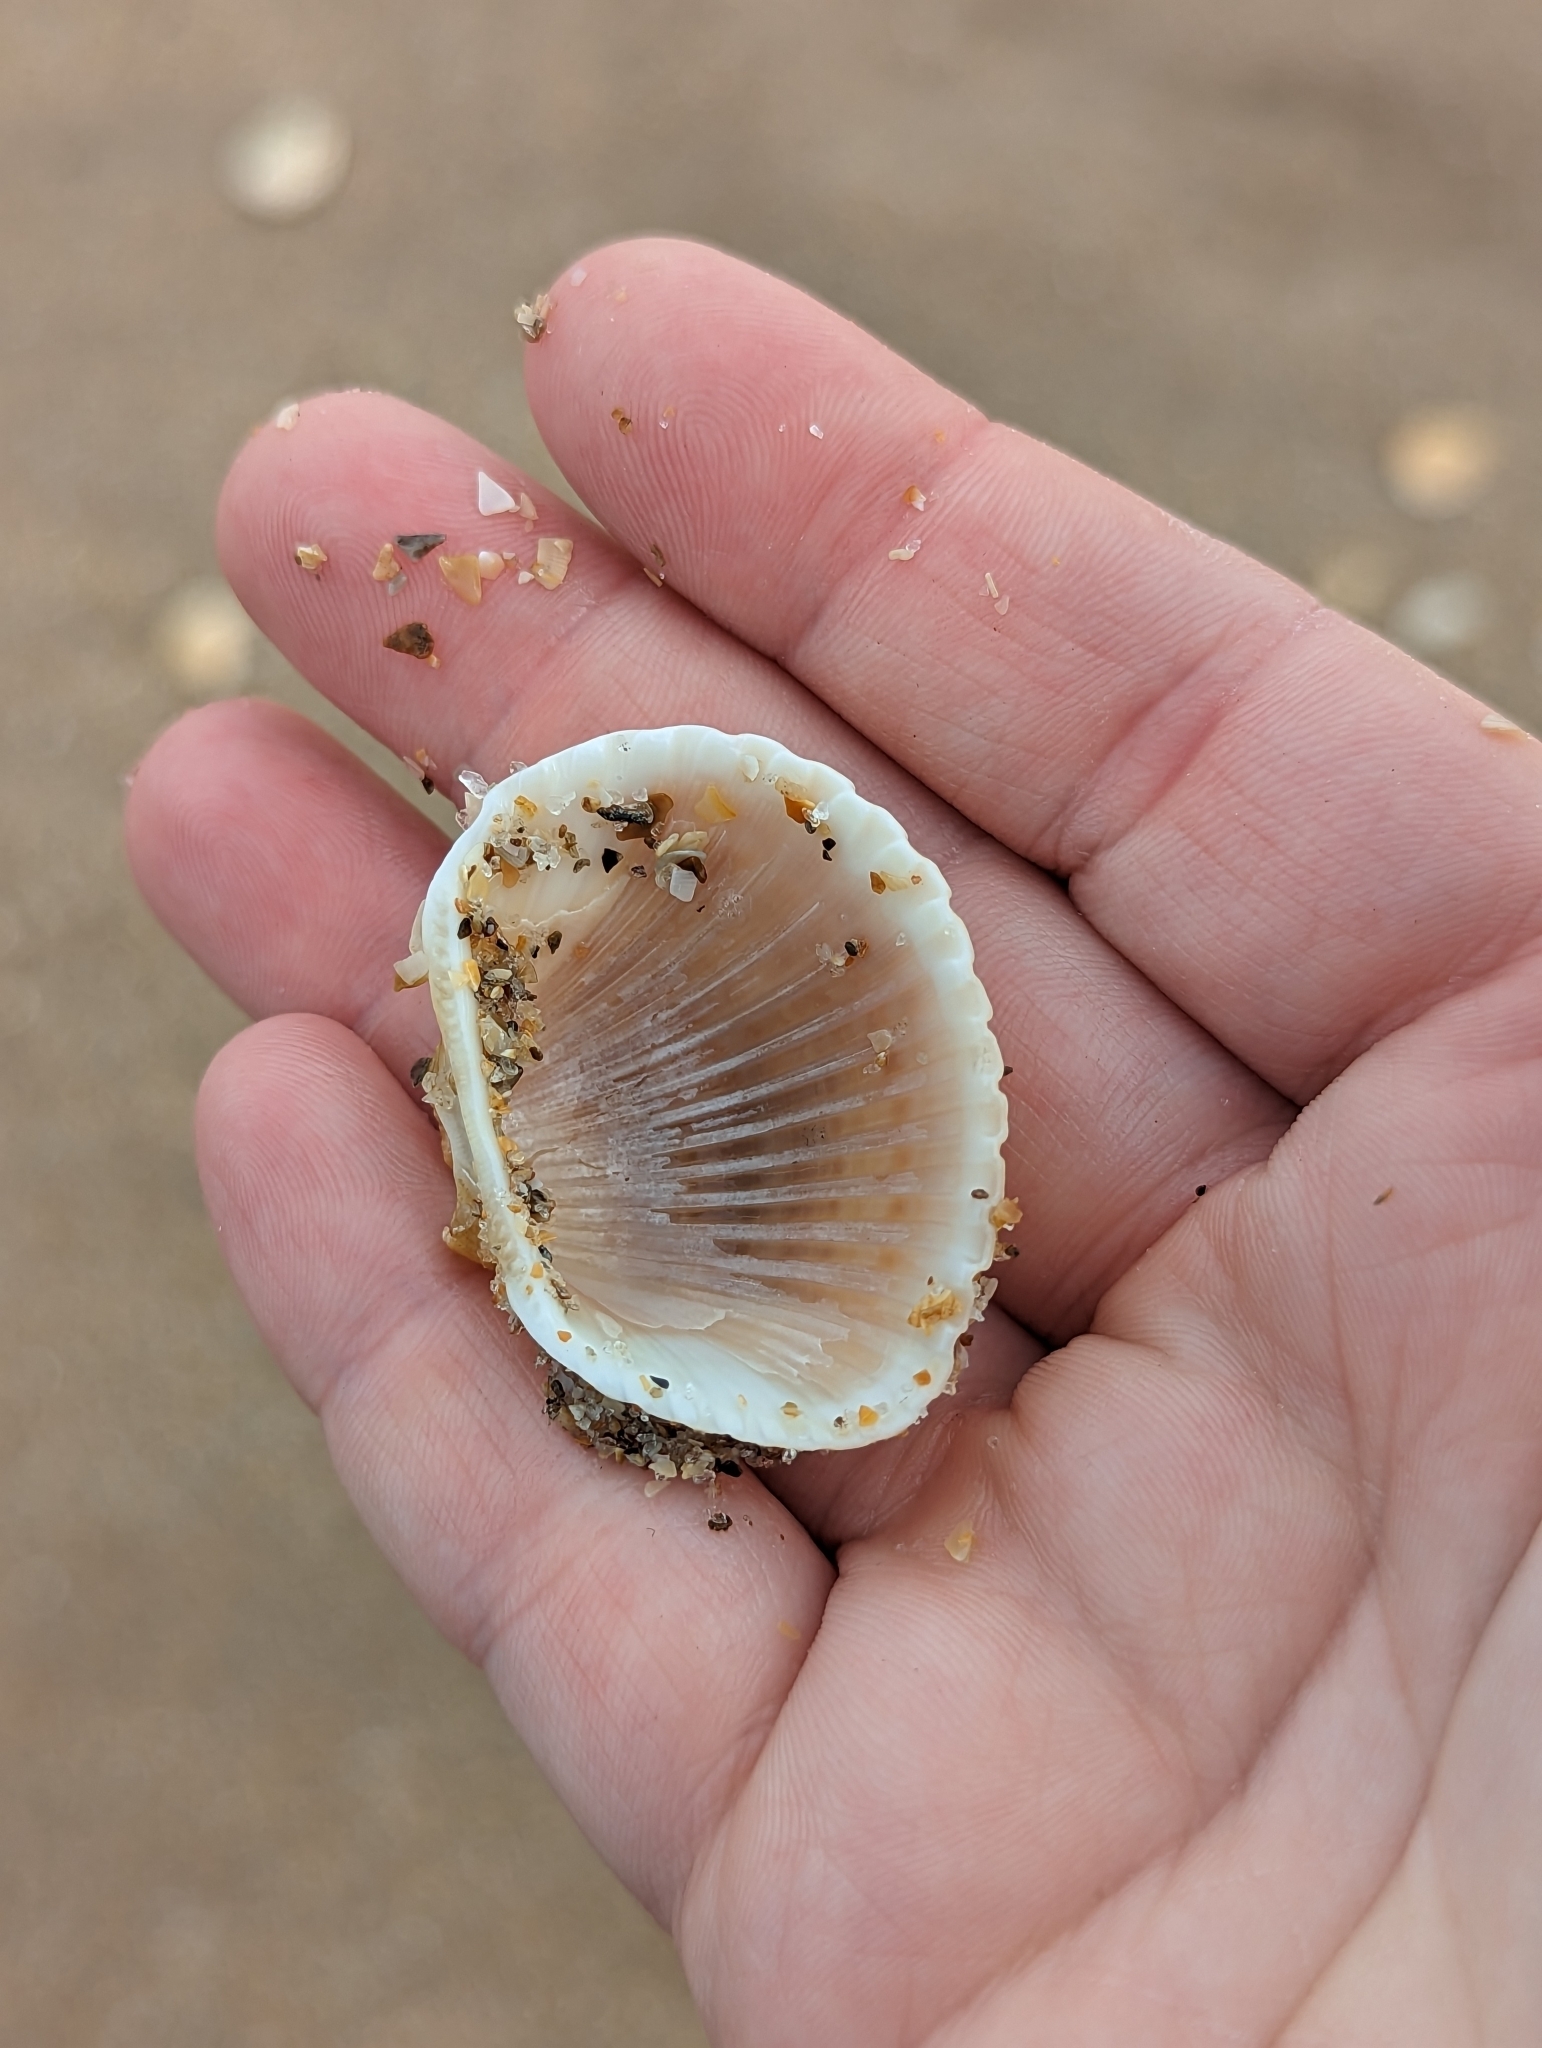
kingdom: Animalia
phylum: Mollusca
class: Bivalvia
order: Arcida
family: Arcidae
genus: Anadara
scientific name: Anadara brasiliana
